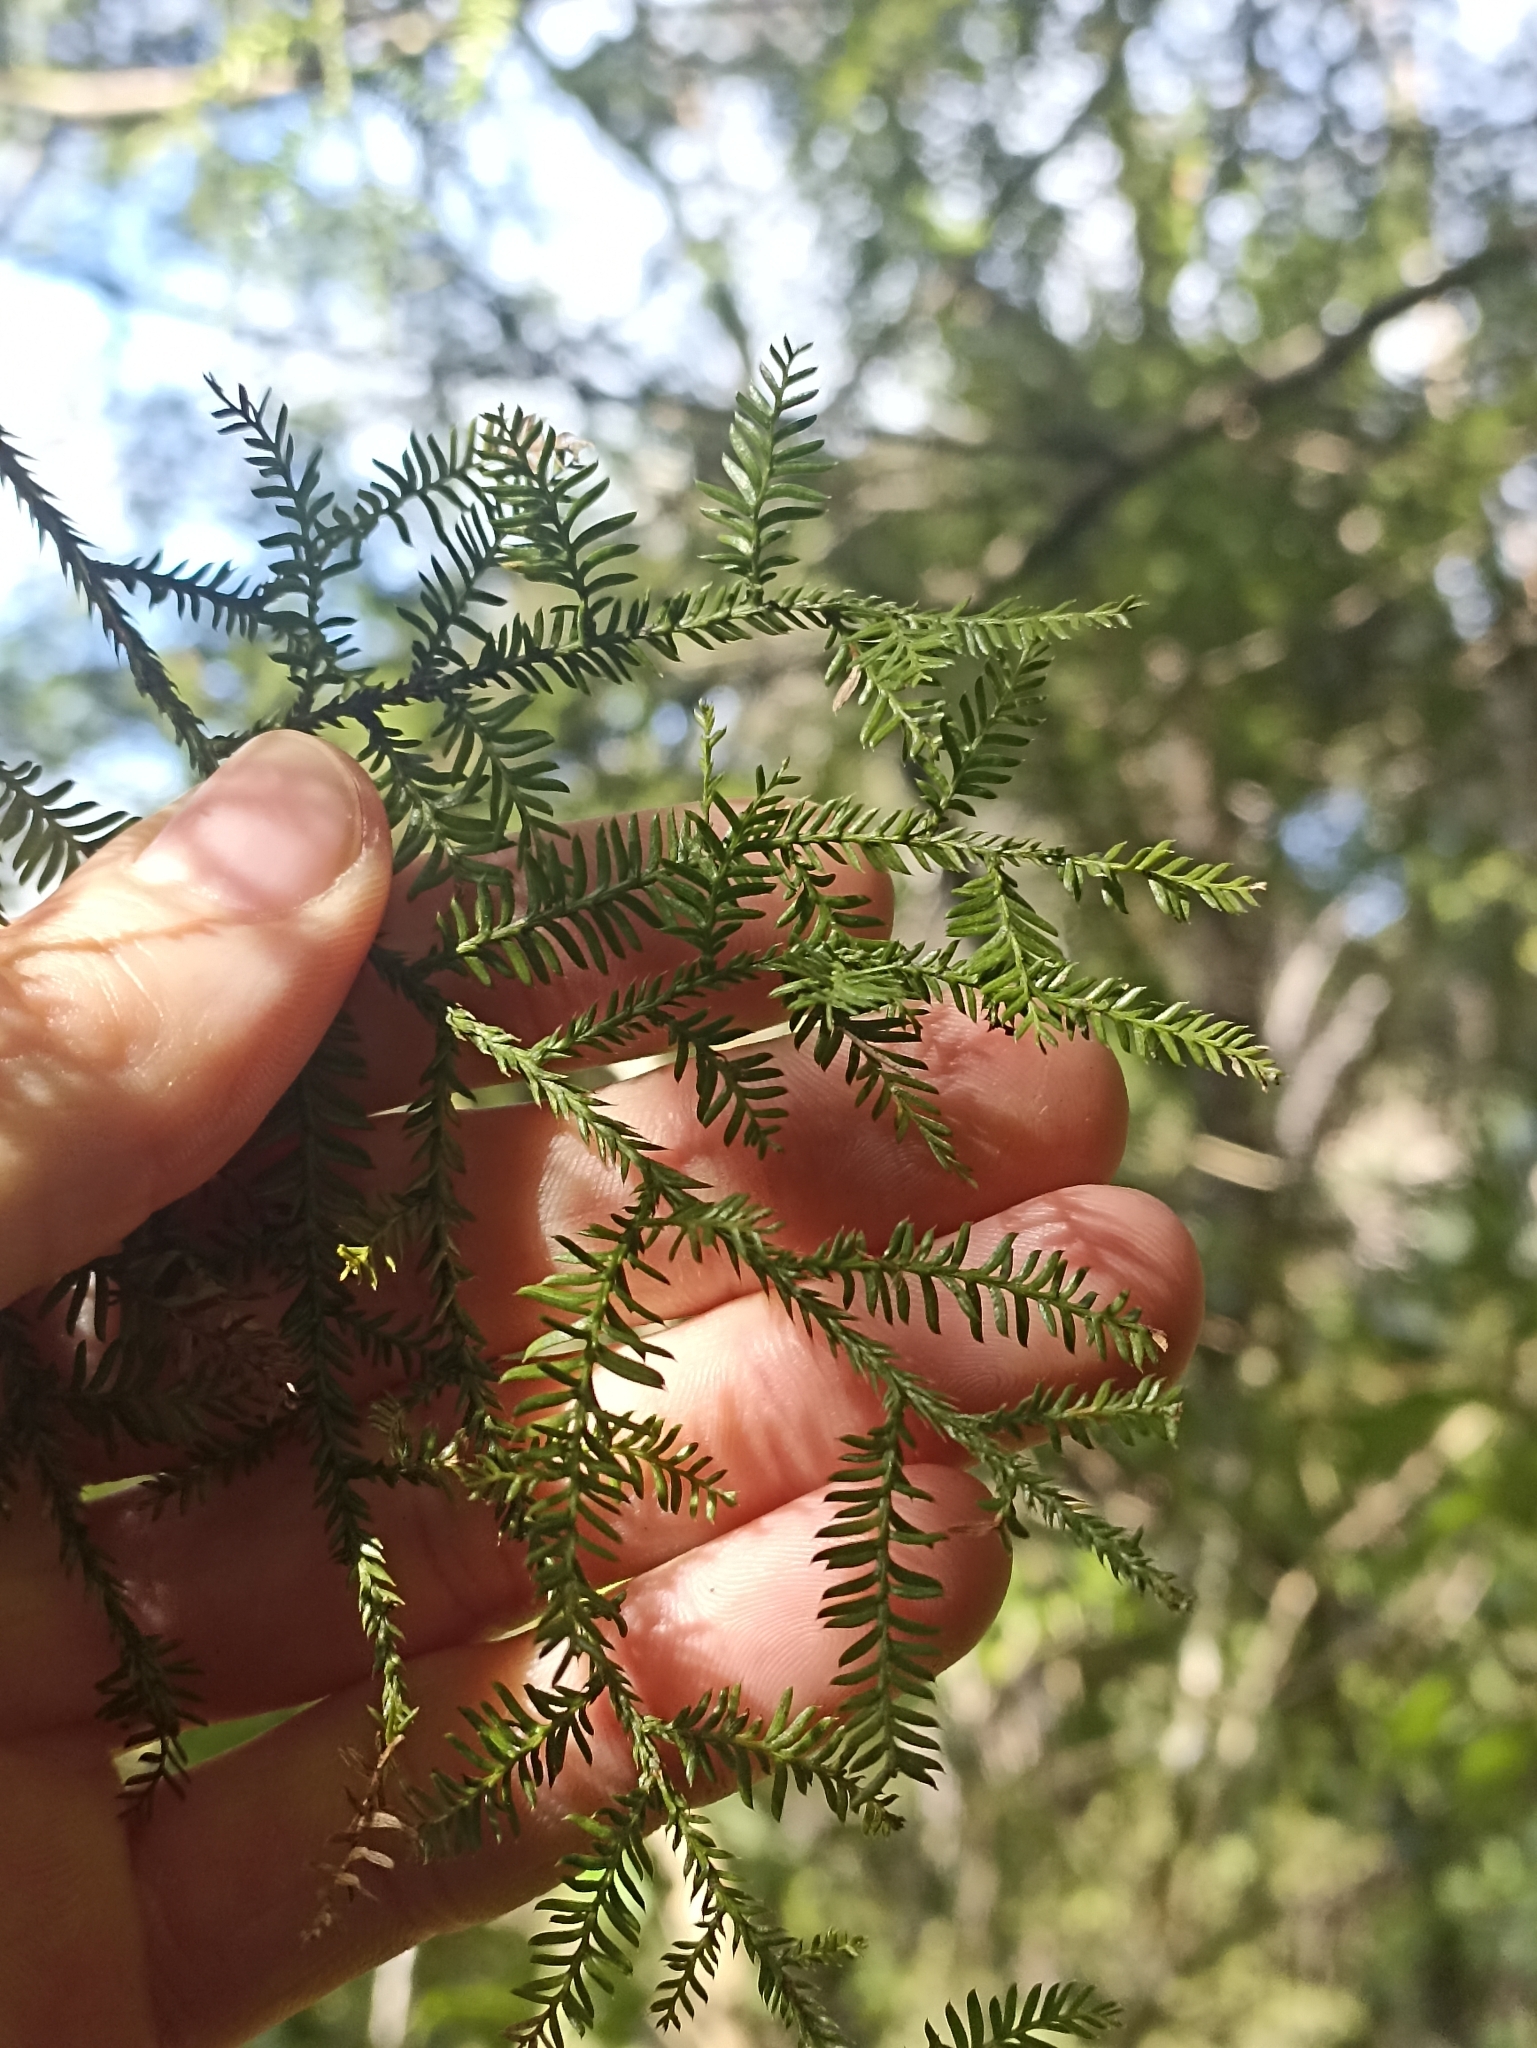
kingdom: Plantae
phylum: Tracheophyta
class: Pinopsida
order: Pinales
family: Podocarpaceae
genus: Dacrycarpus
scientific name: Dacrycarpus dacrydioides
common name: White pine
